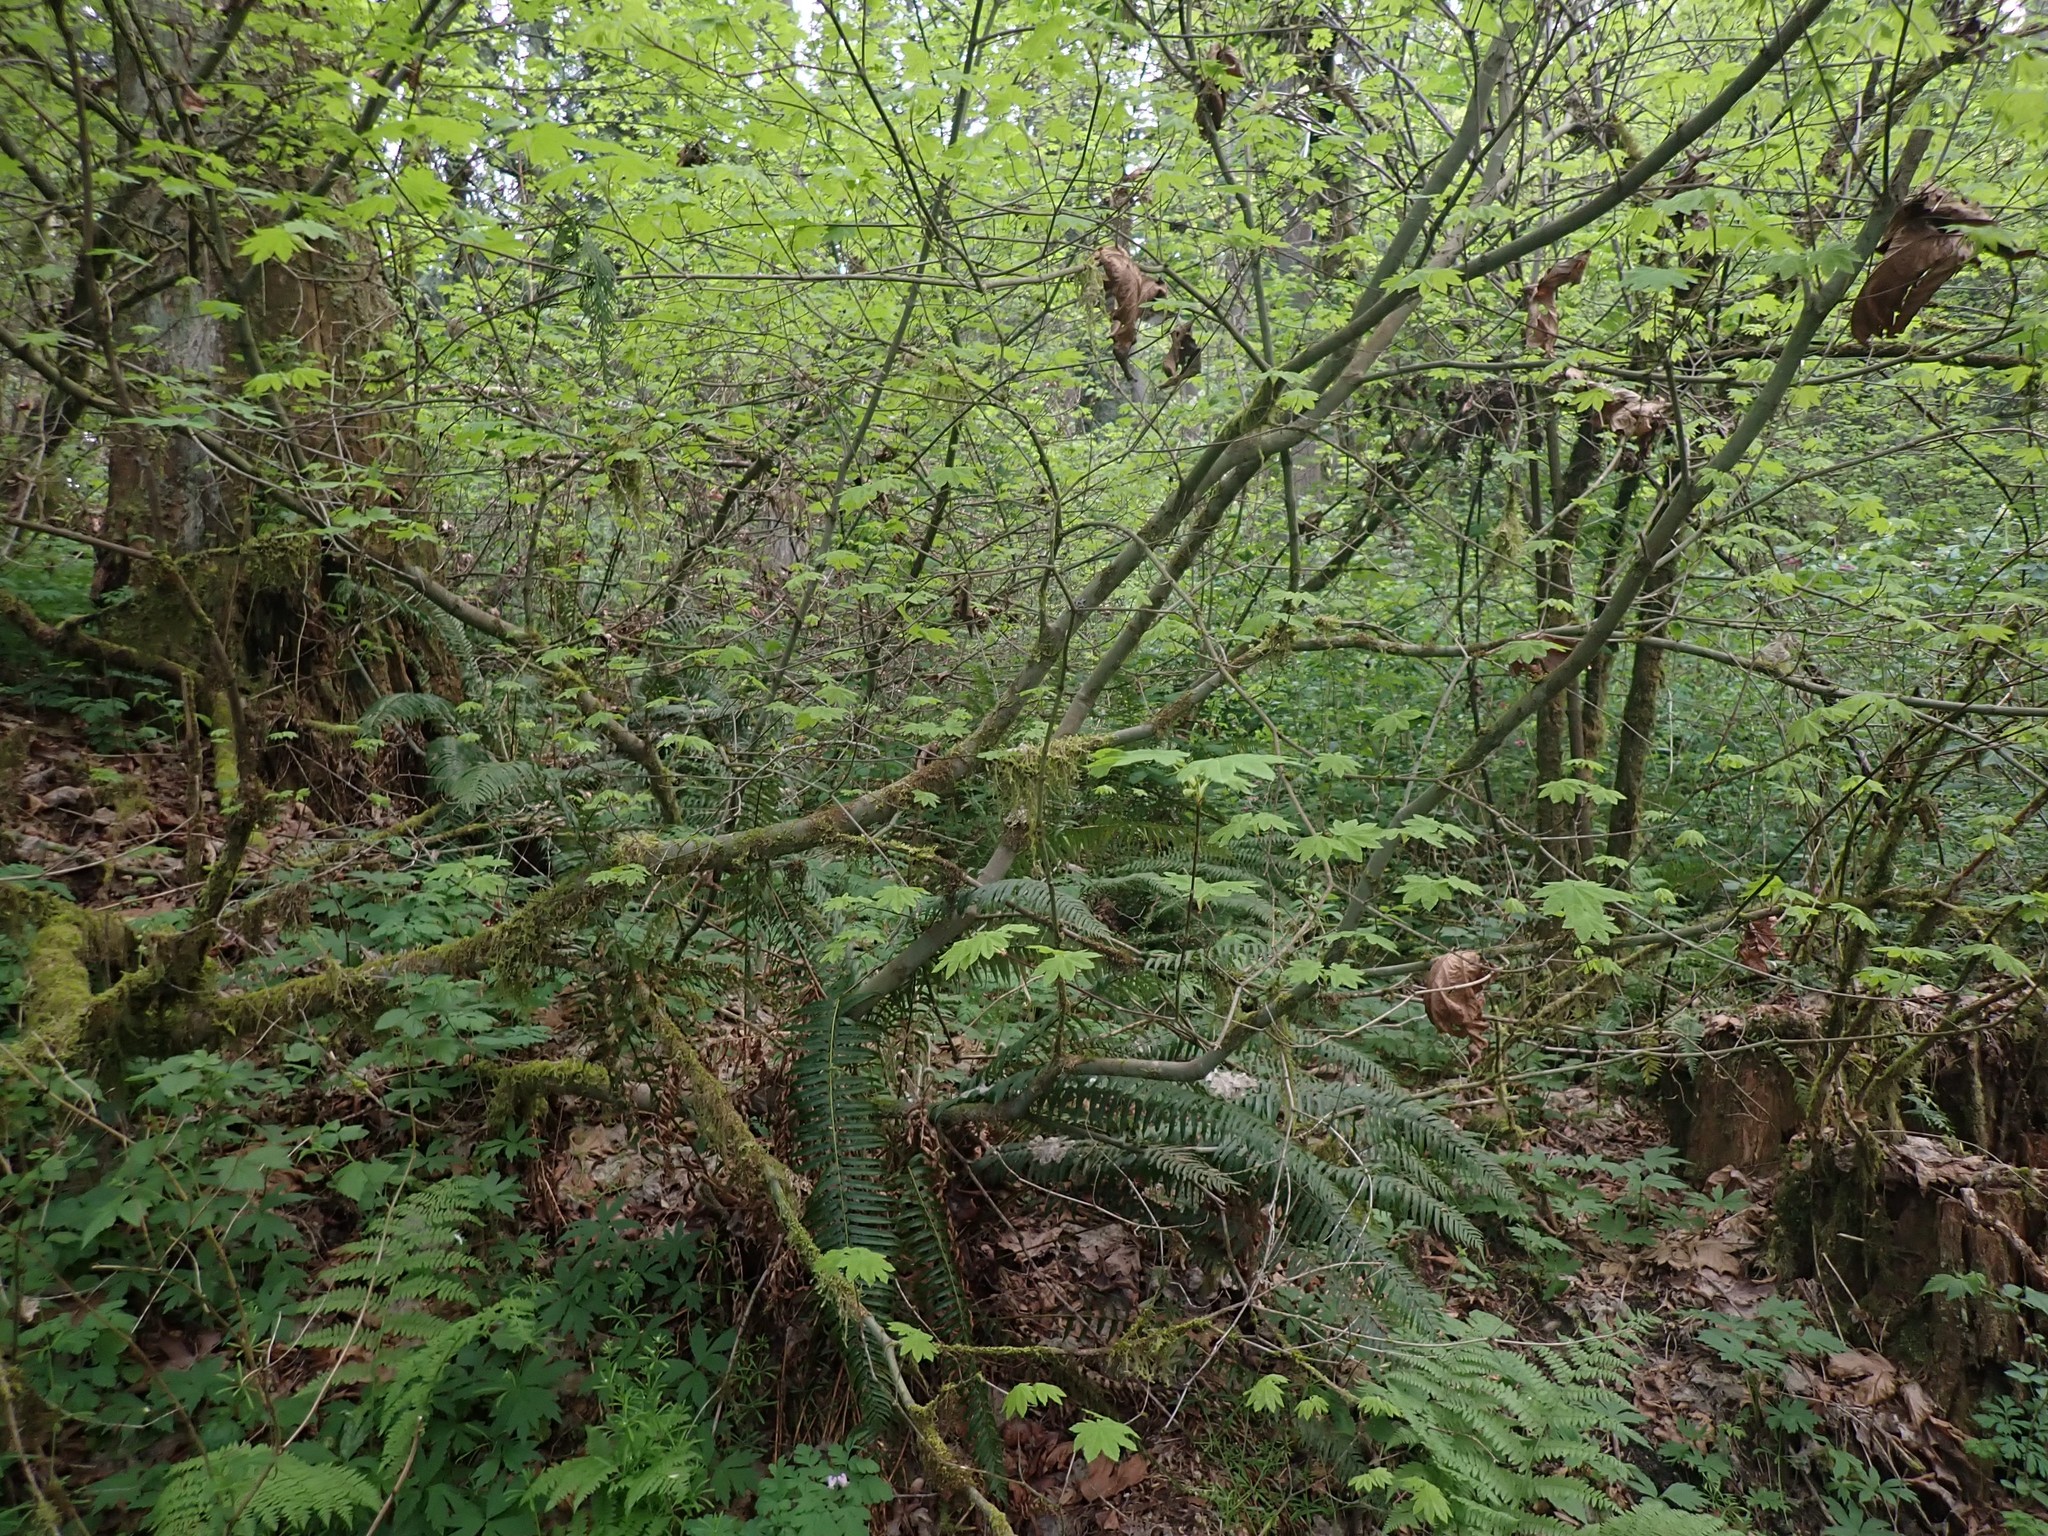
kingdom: Plantae
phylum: Tracheophyta
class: Magnoliopsida
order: Sapindales
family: Sapindaceae
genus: Acer
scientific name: Acer circinatum
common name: Vine maple
